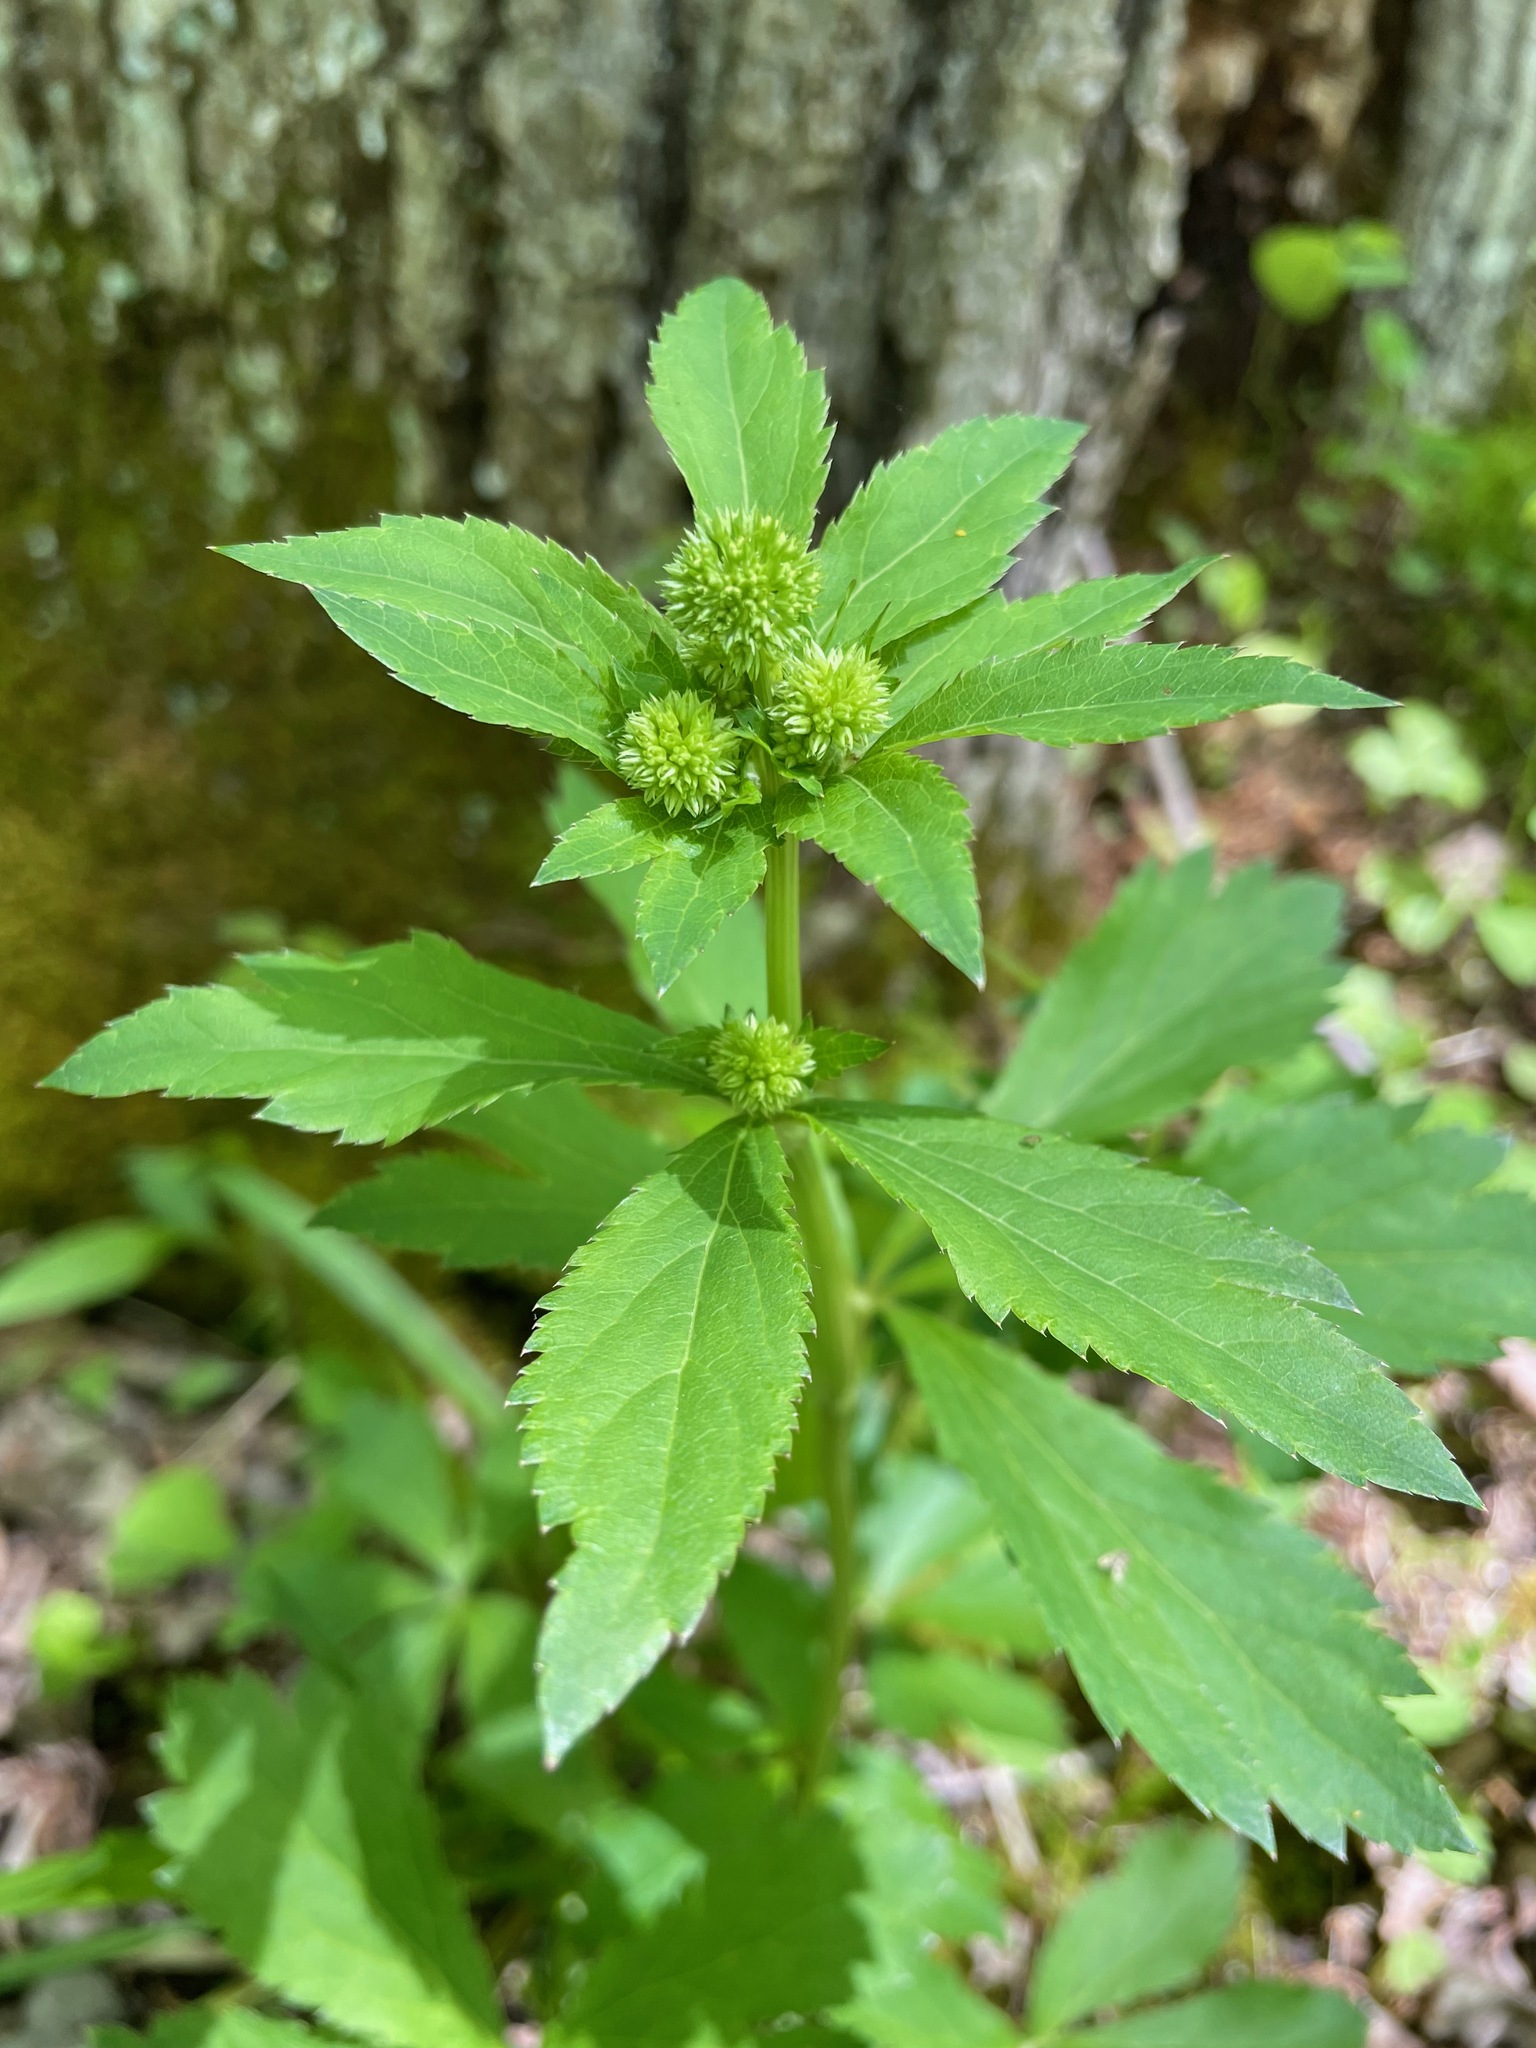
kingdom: Plantae
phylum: Tracheophyta
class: Magnoliopsida
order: Apiales
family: Apiaceae
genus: Sanicula
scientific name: Sanicula marilandica
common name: Black snakeroot
